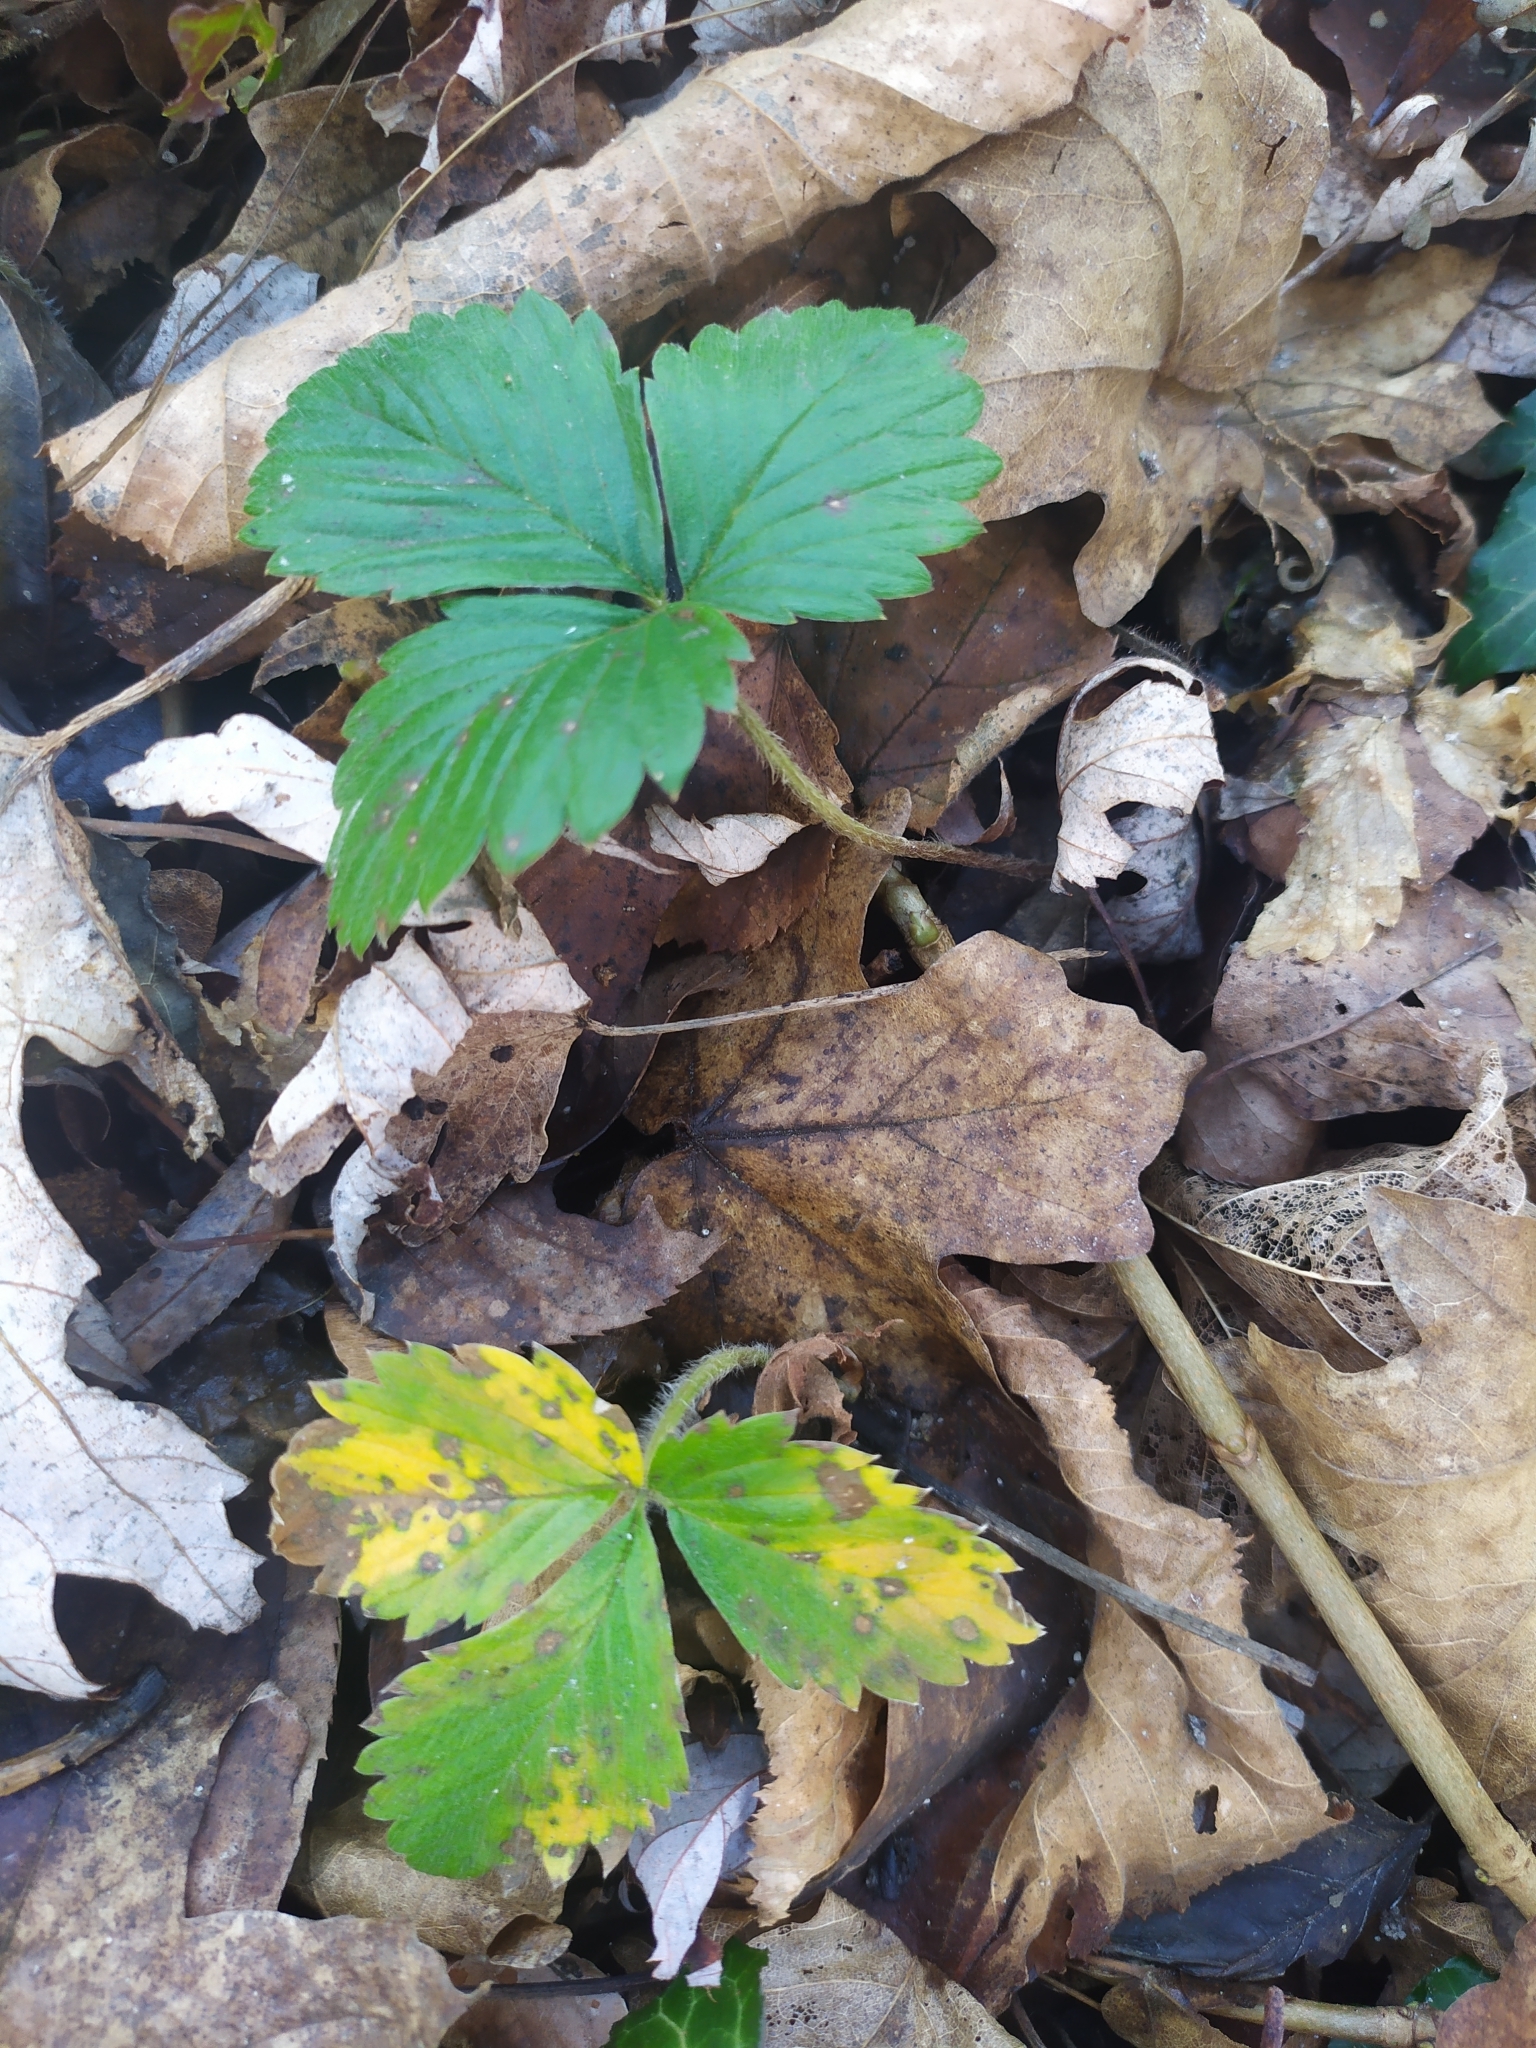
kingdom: Plantae
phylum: Tracheophyta
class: Magnoliopsida
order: Rosales
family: Rosaceae
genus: Fragaria
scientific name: Fragaria vesca
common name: Wild strawberry
